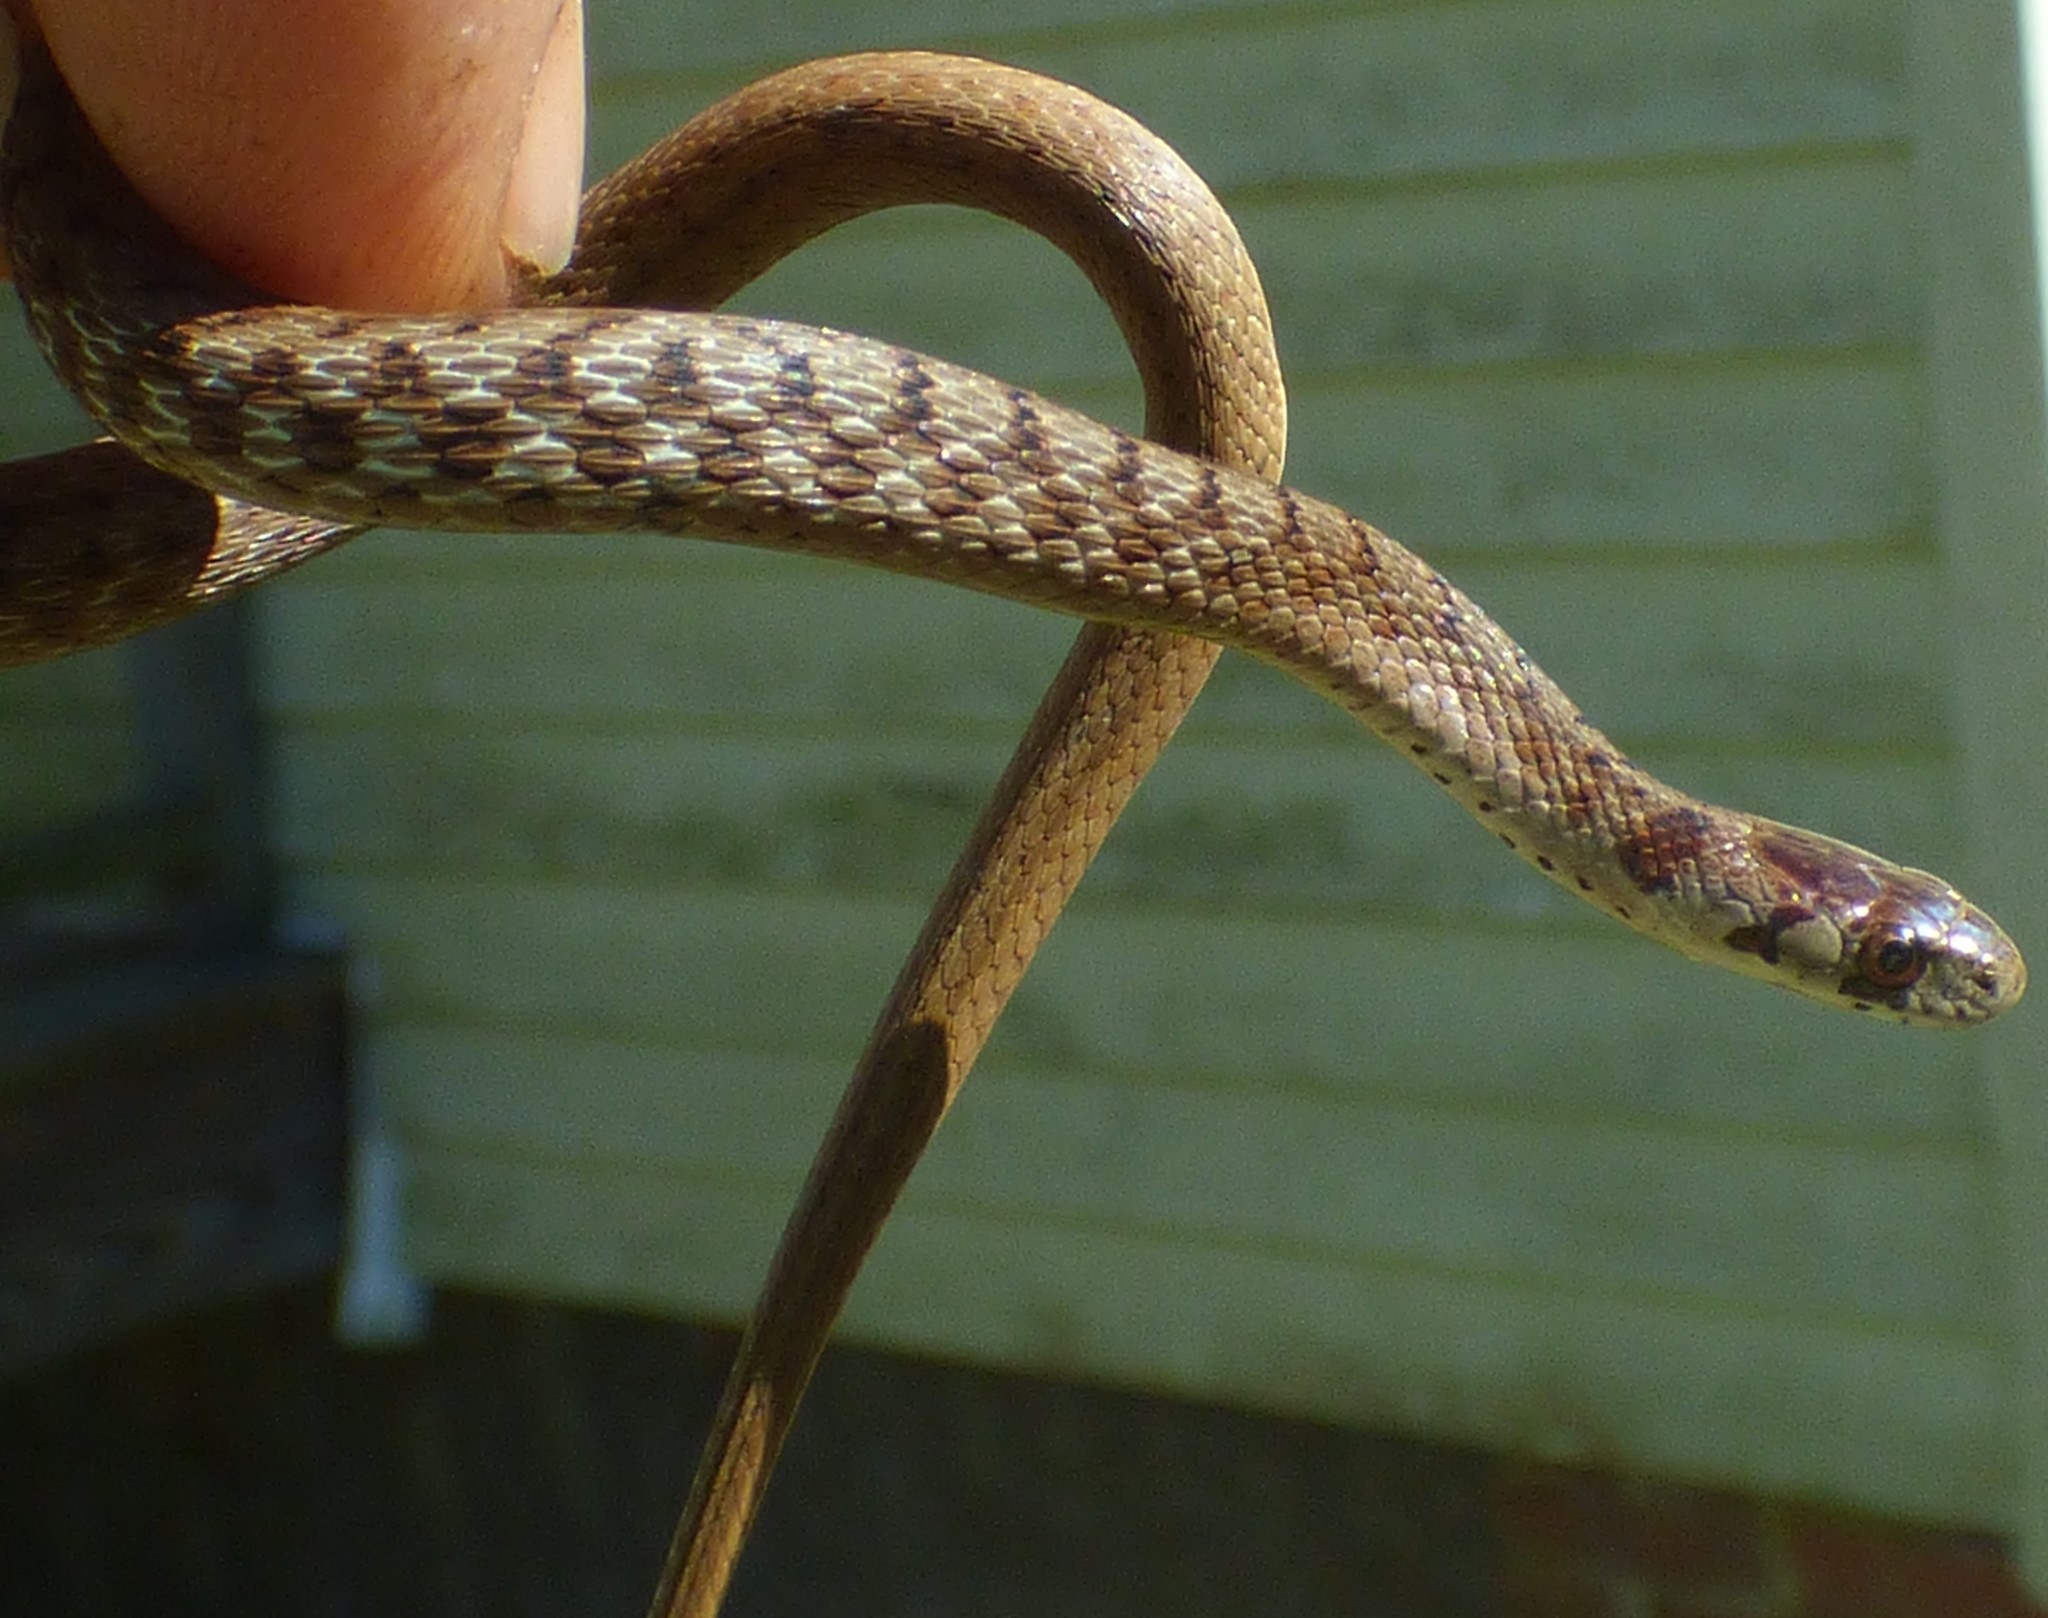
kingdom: Animalia
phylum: Chordata
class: Squamata
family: Colubridae
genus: Storeria
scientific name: Storeria dekayi
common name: (dekay’s) brown snake
